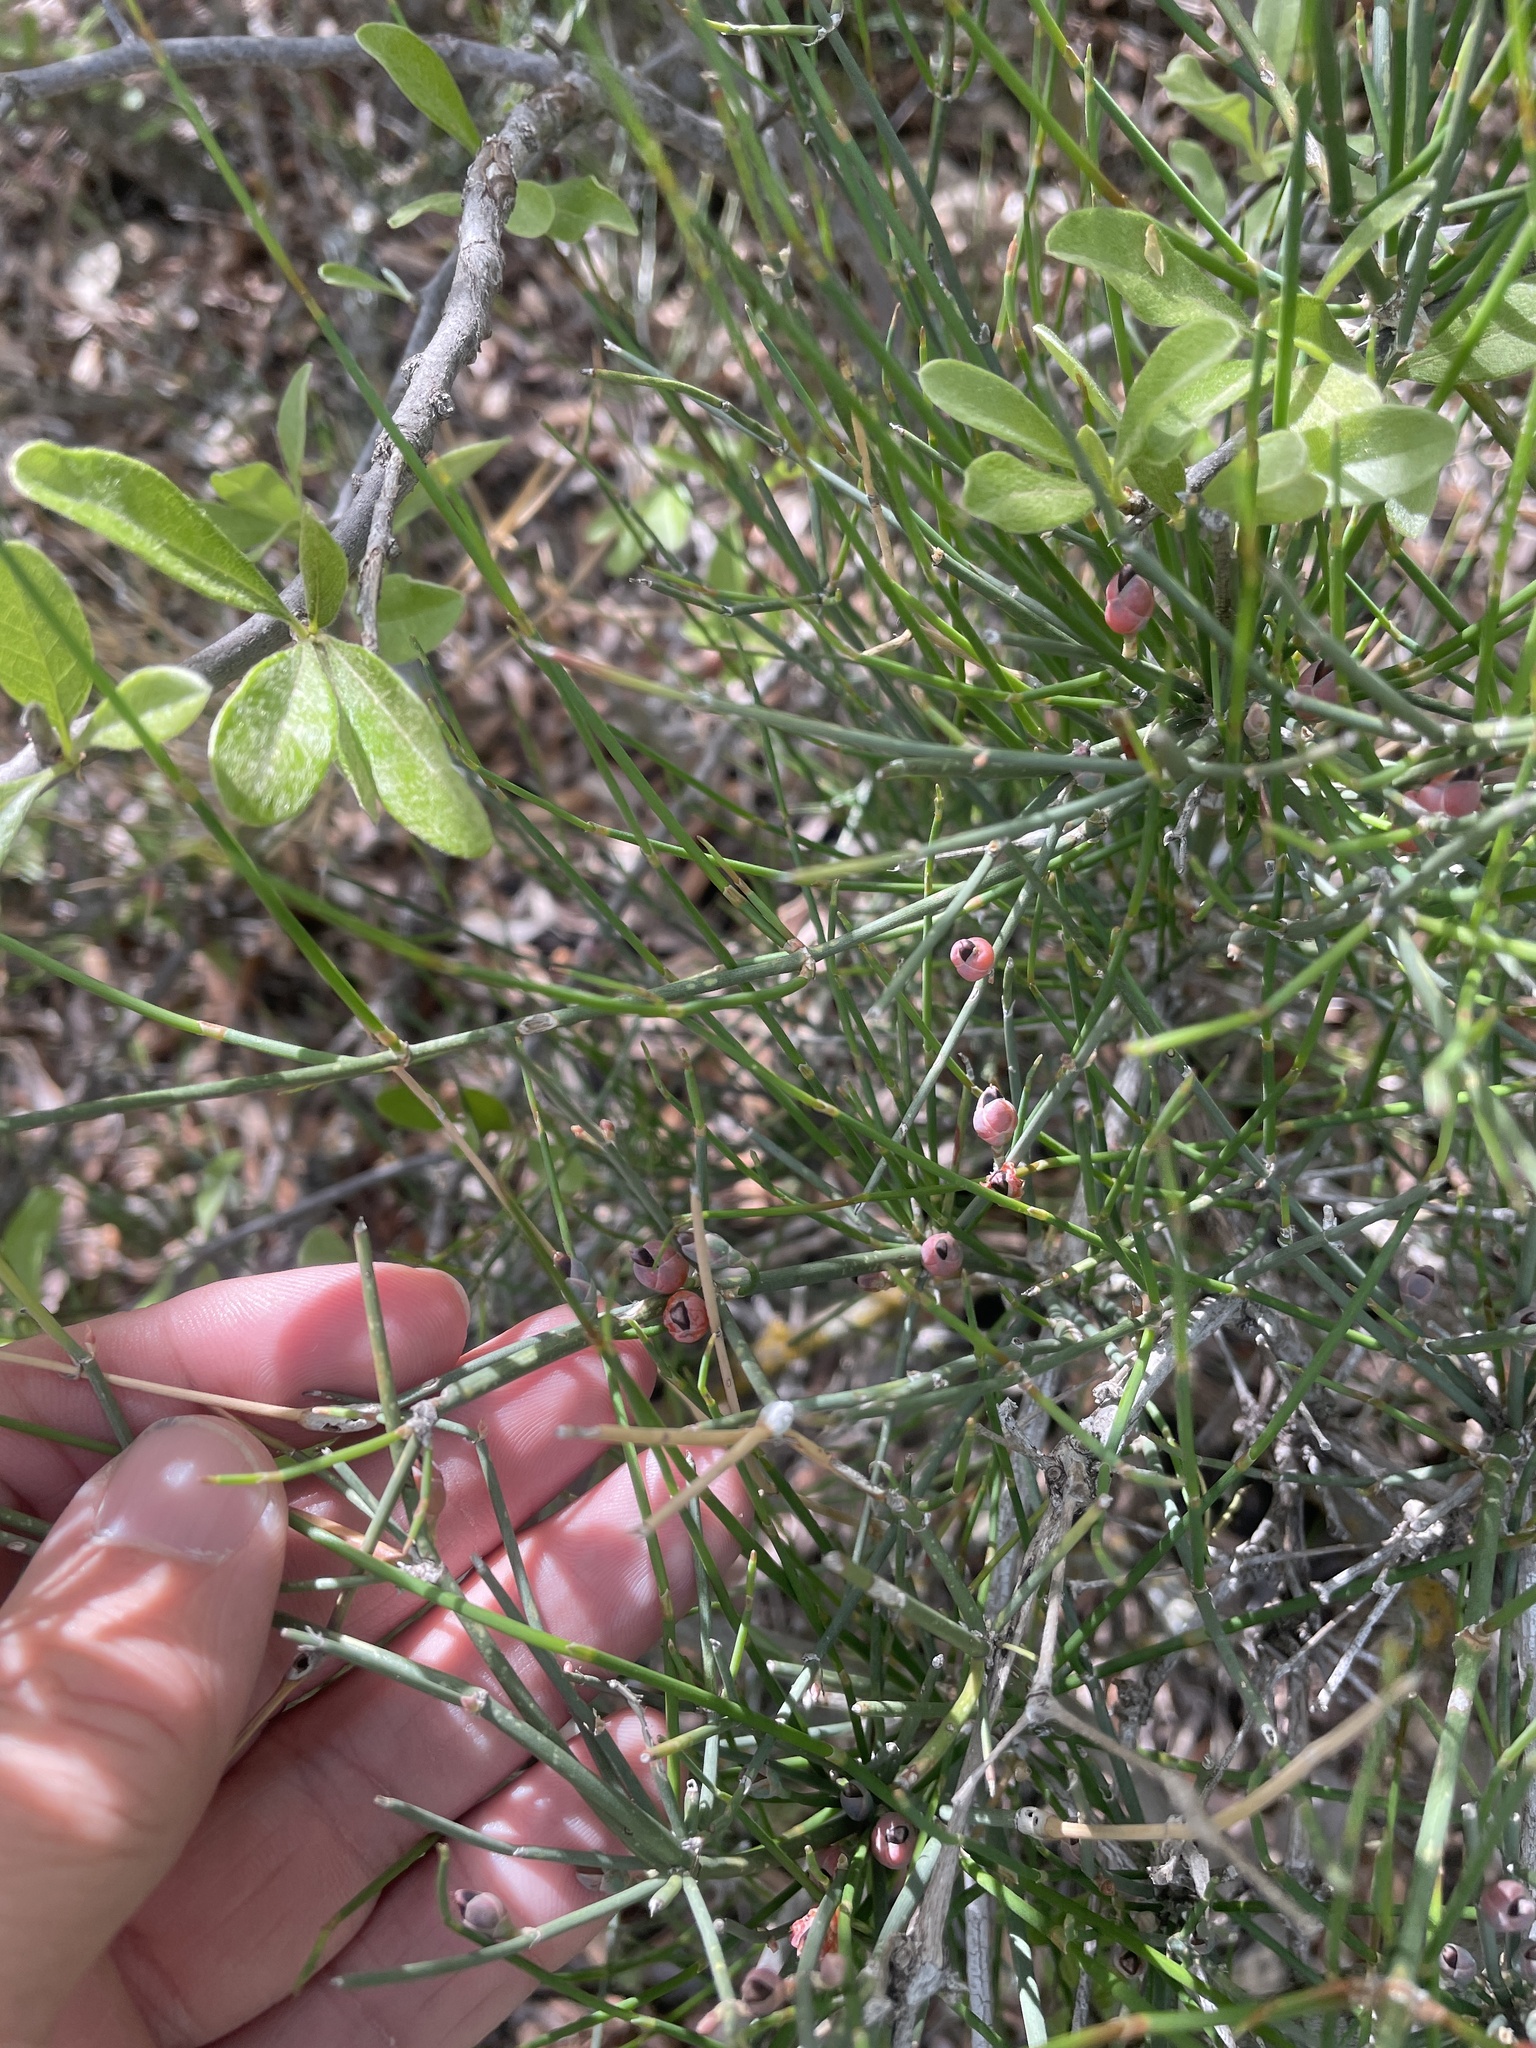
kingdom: Plantae
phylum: Tracheophyta
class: Gnetopsida
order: Ephedrales
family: Ephedraceae
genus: Ephedra
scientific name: Ephedra antisyphilitica
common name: Clipweed
